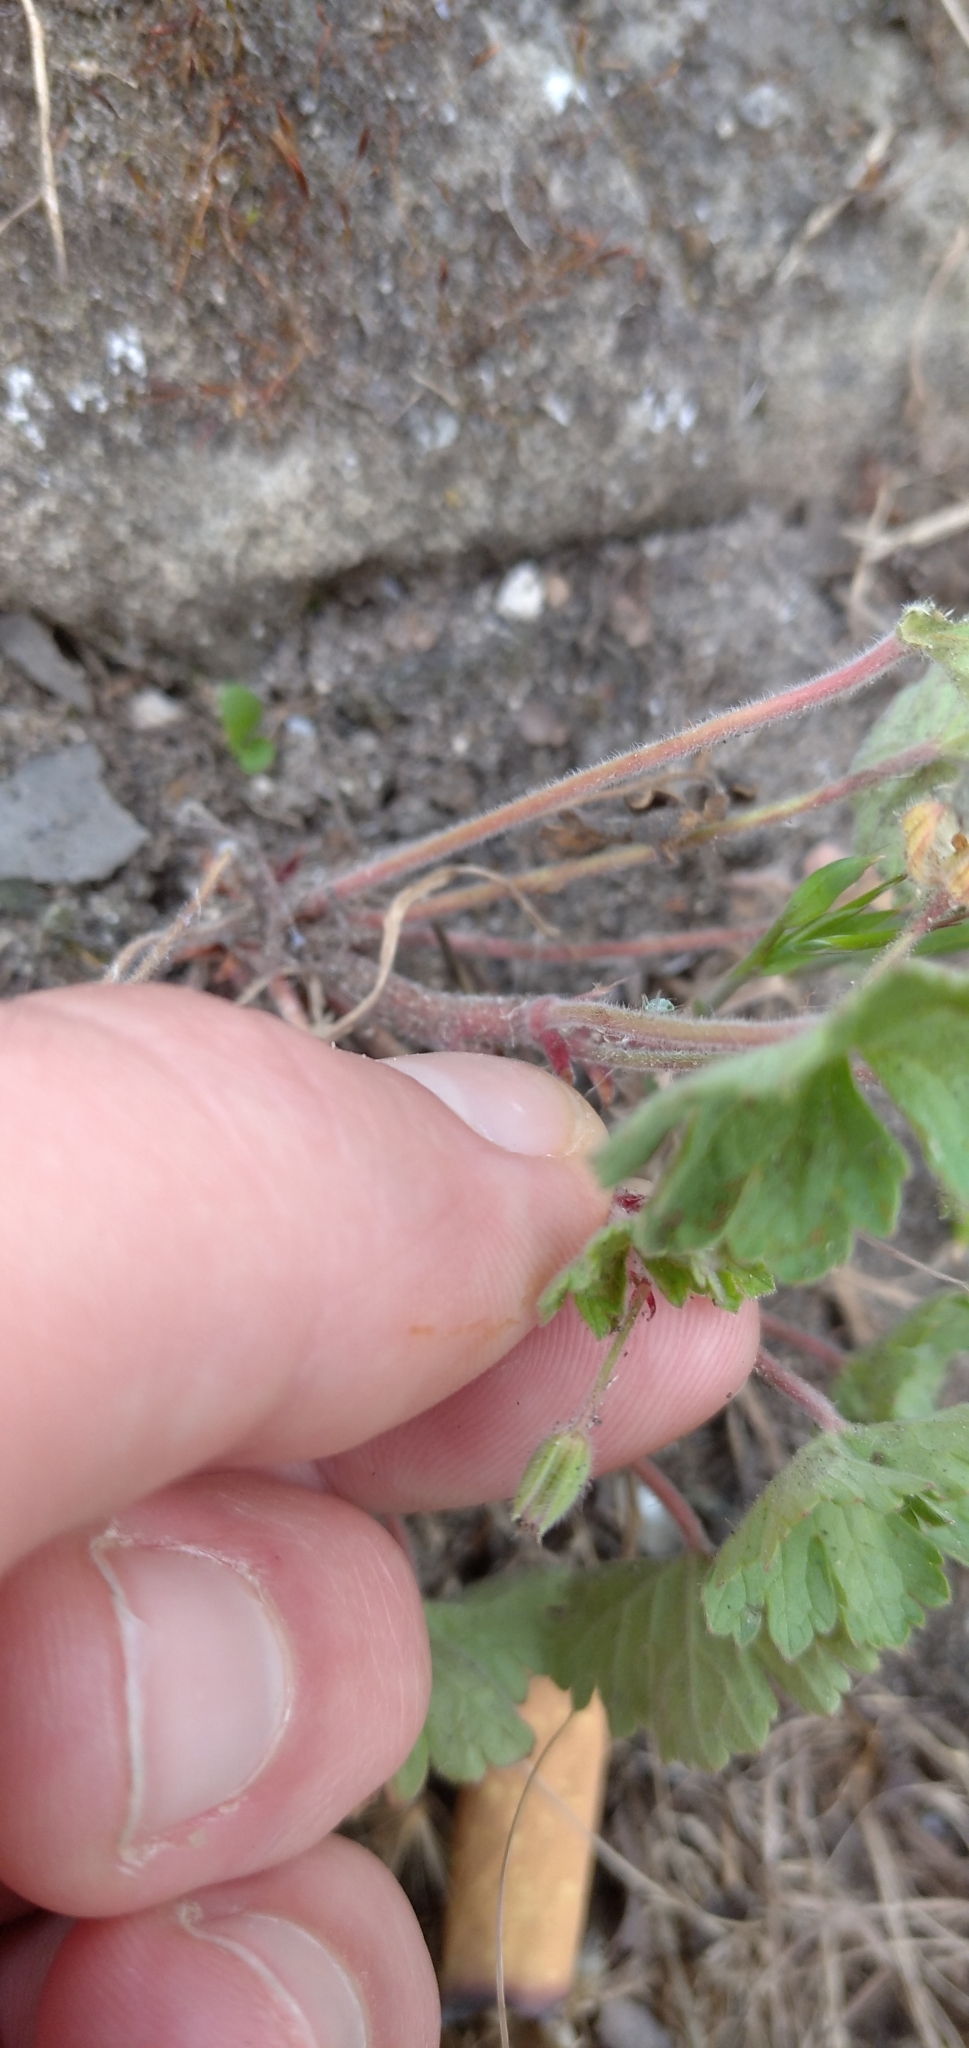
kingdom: Plantae
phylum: Tracheophyta
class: Magnoliopsida
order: Geraniales
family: Geraniaceae
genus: Geranium
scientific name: Geranium rotundifolium
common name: Round-leaved crane's-bill
